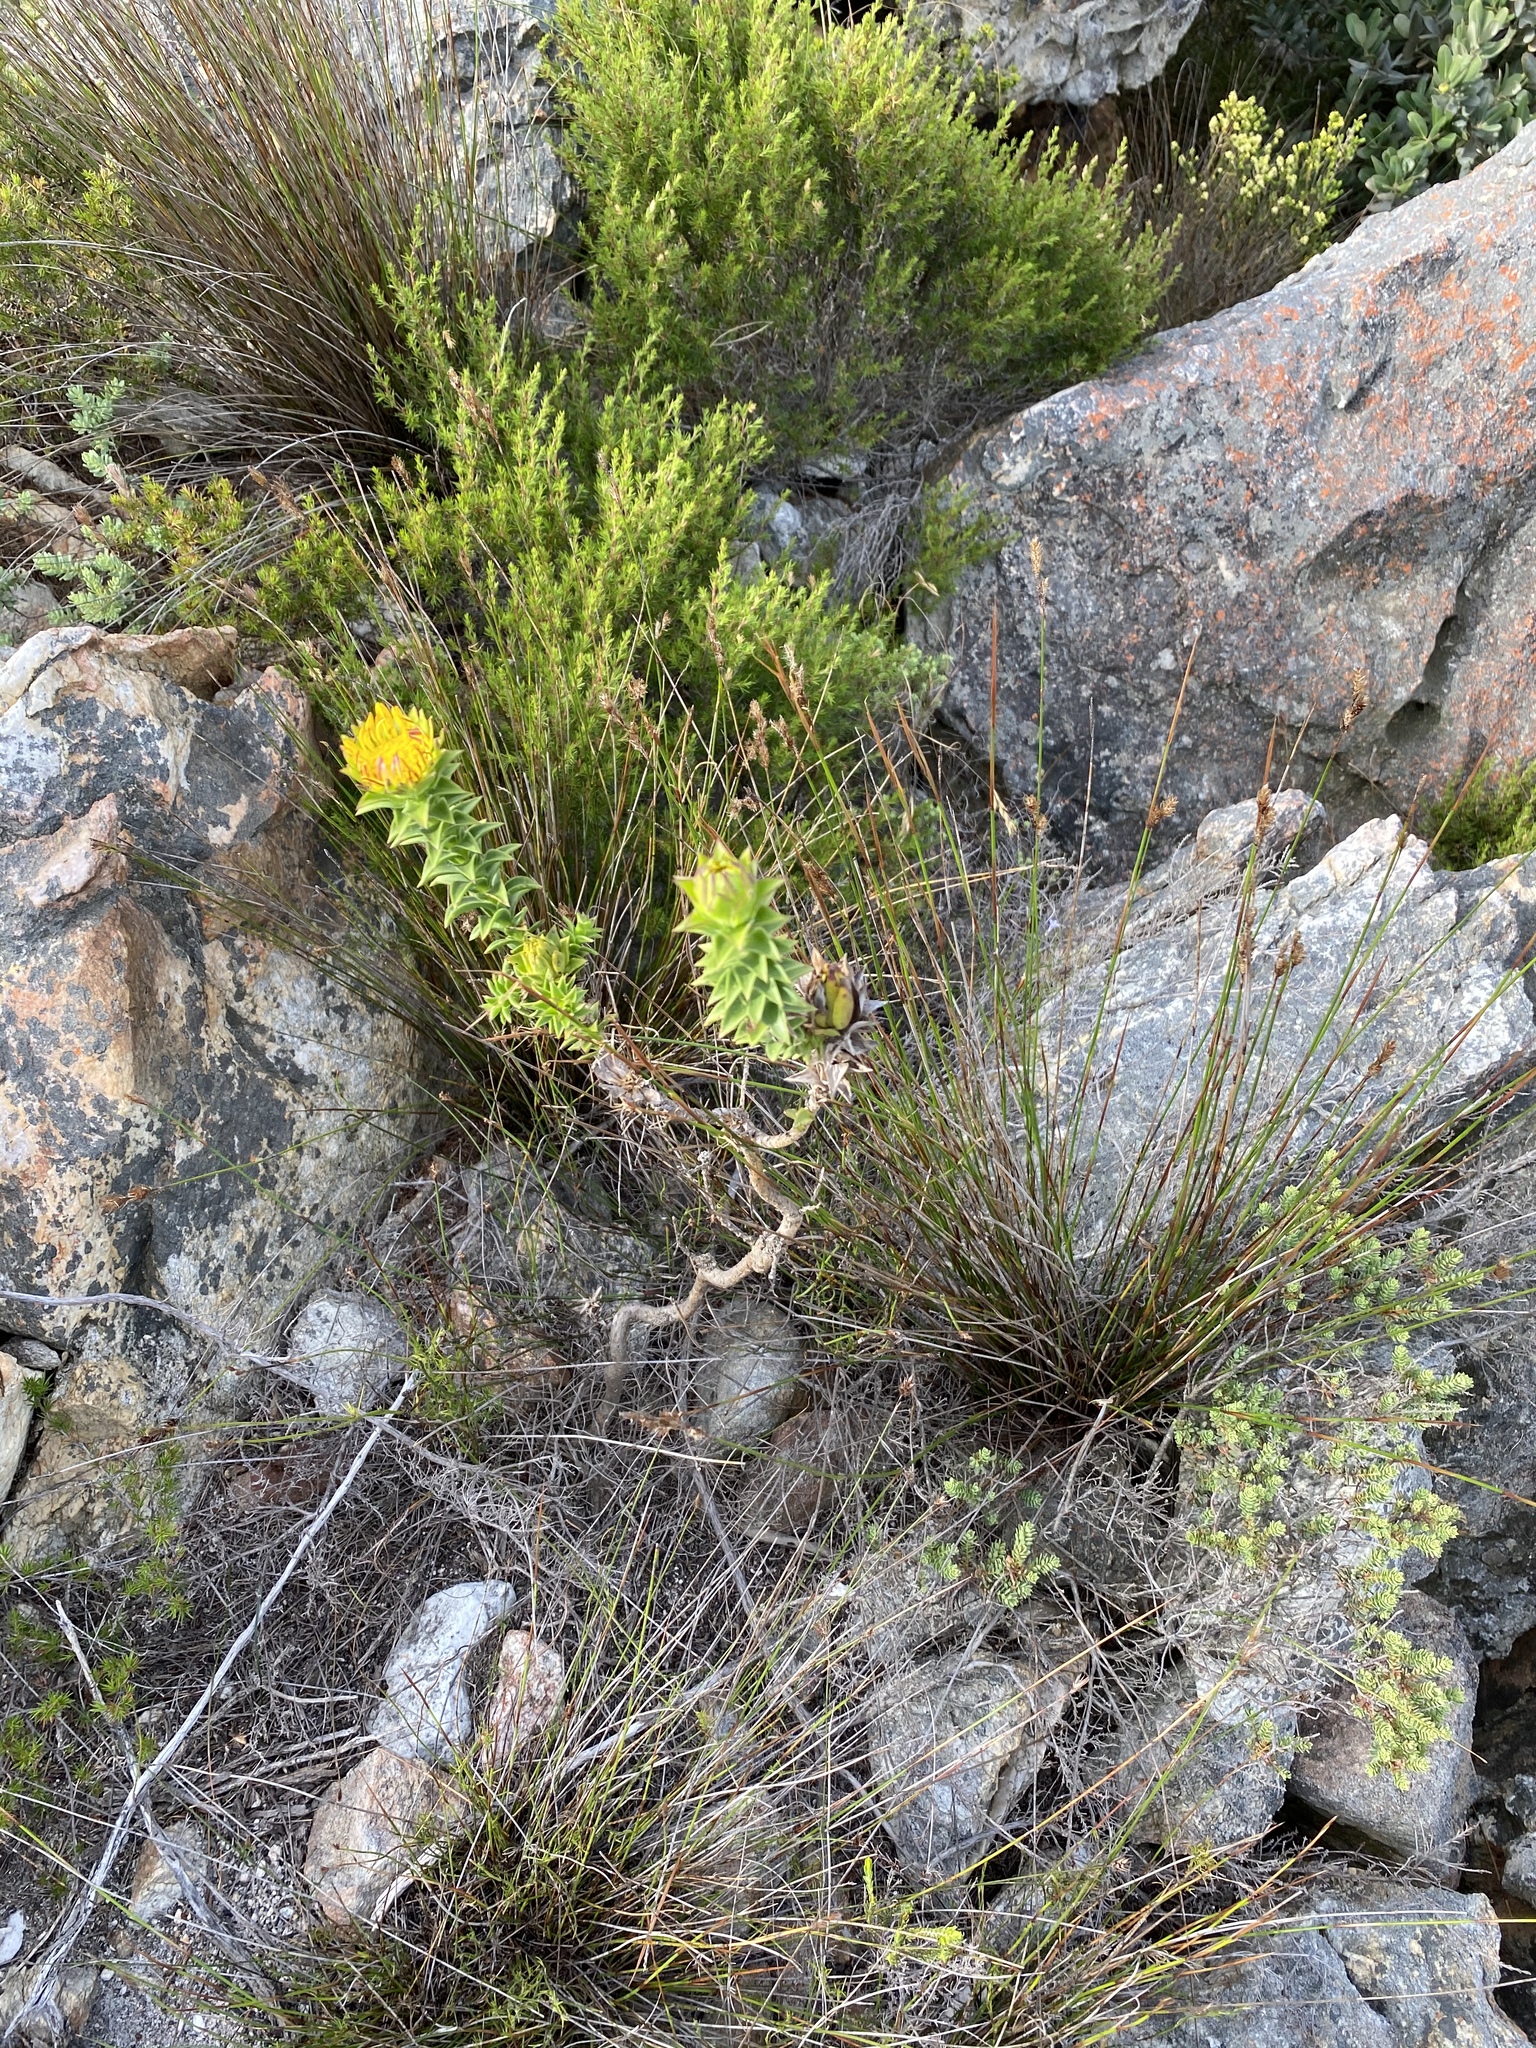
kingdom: Plantae
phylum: Tracheophyta
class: Magnoliopsida
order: Asterales
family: Asteraceae
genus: Oedera
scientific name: Oedera imbricata
